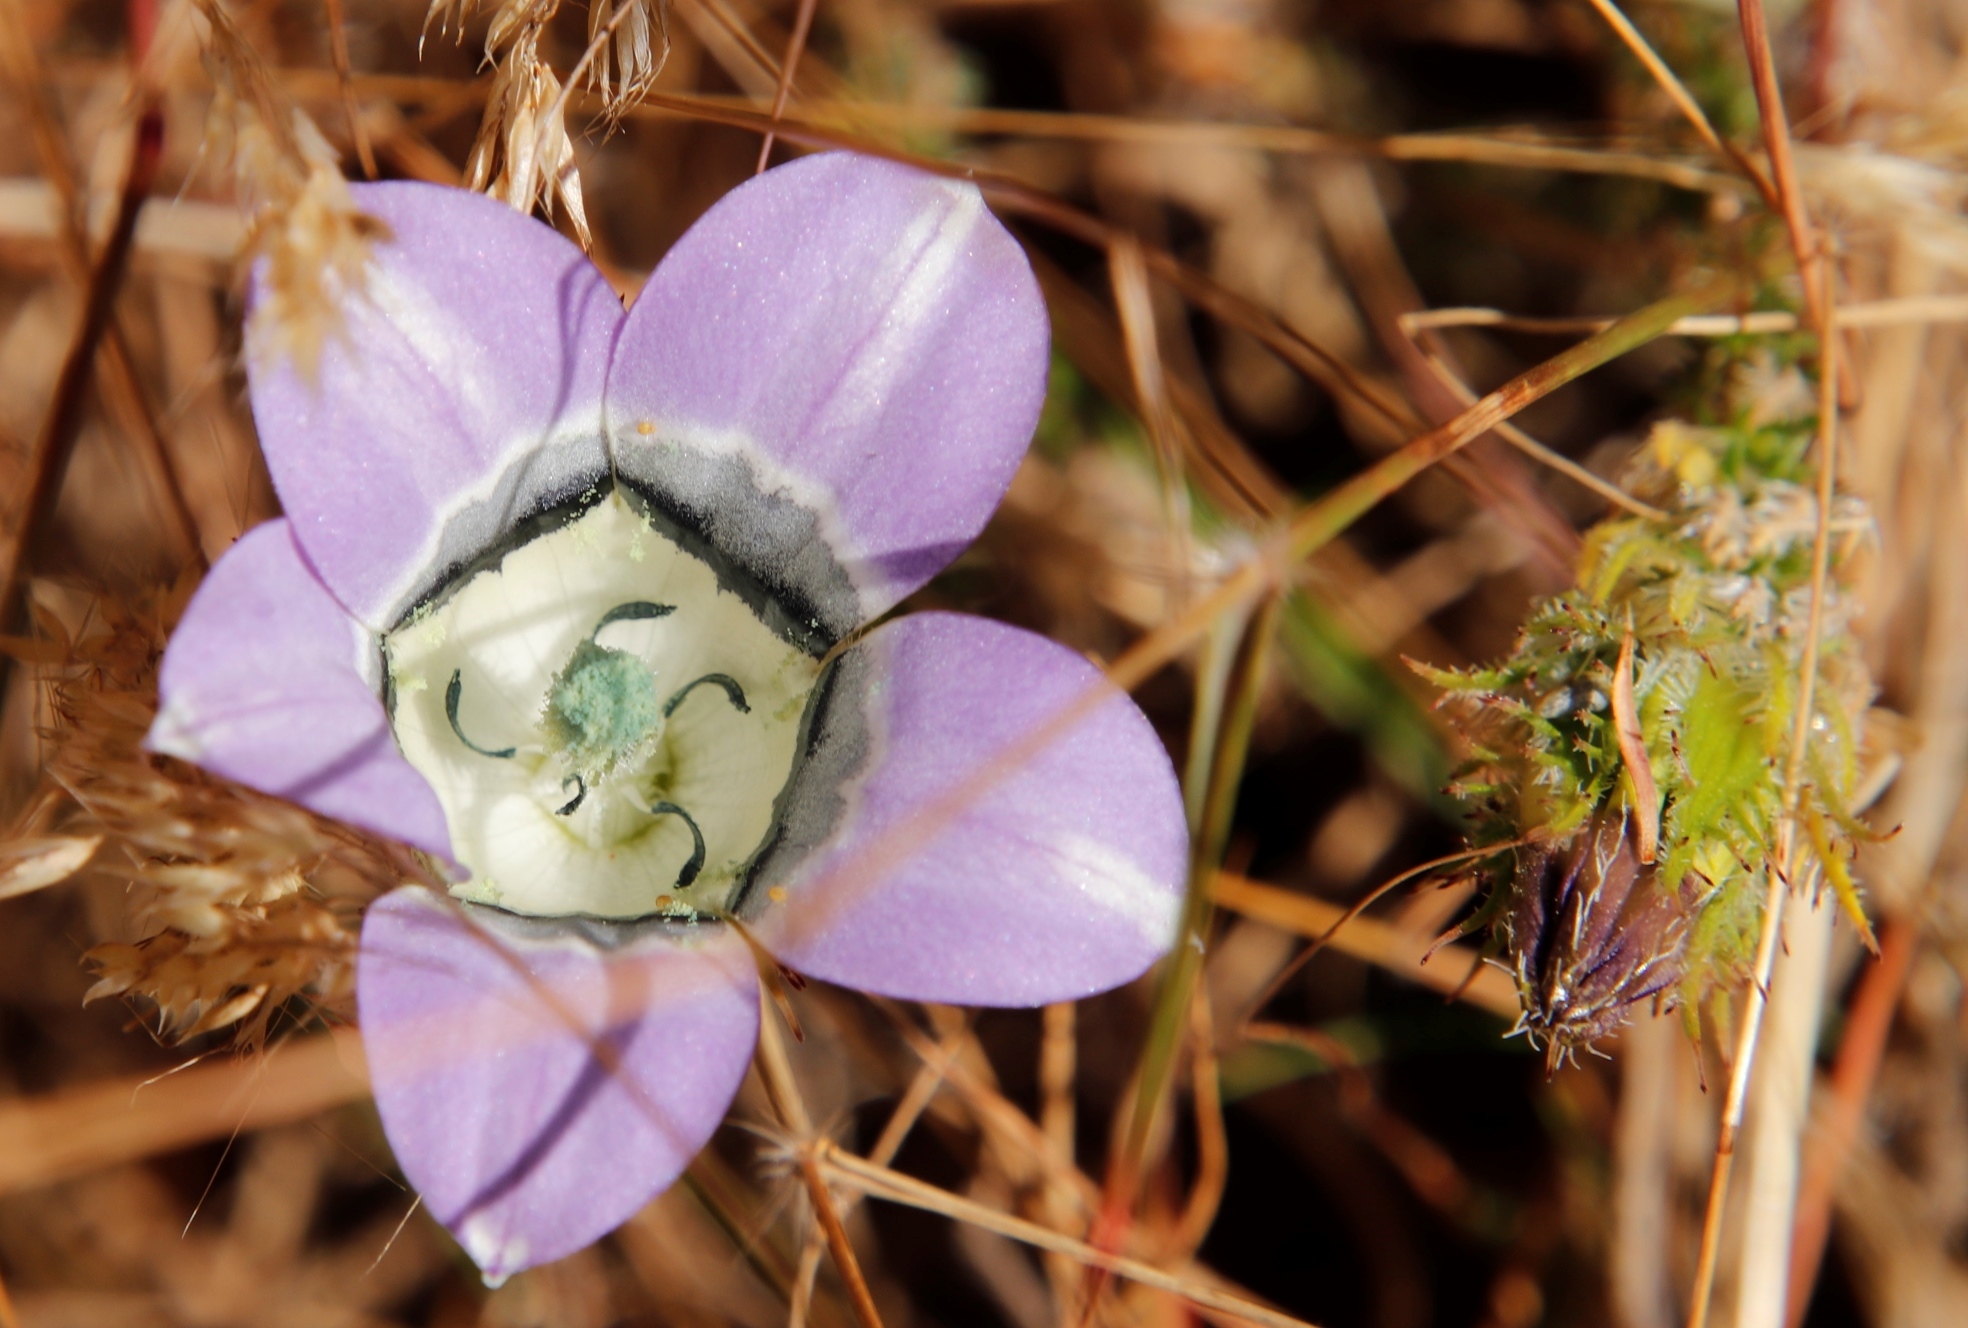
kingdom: Plantae
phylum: Tracheophyta
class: Magnoliopsida
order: Asterales
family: Campanulaceae
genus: Roella
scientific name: Roella ciliata
